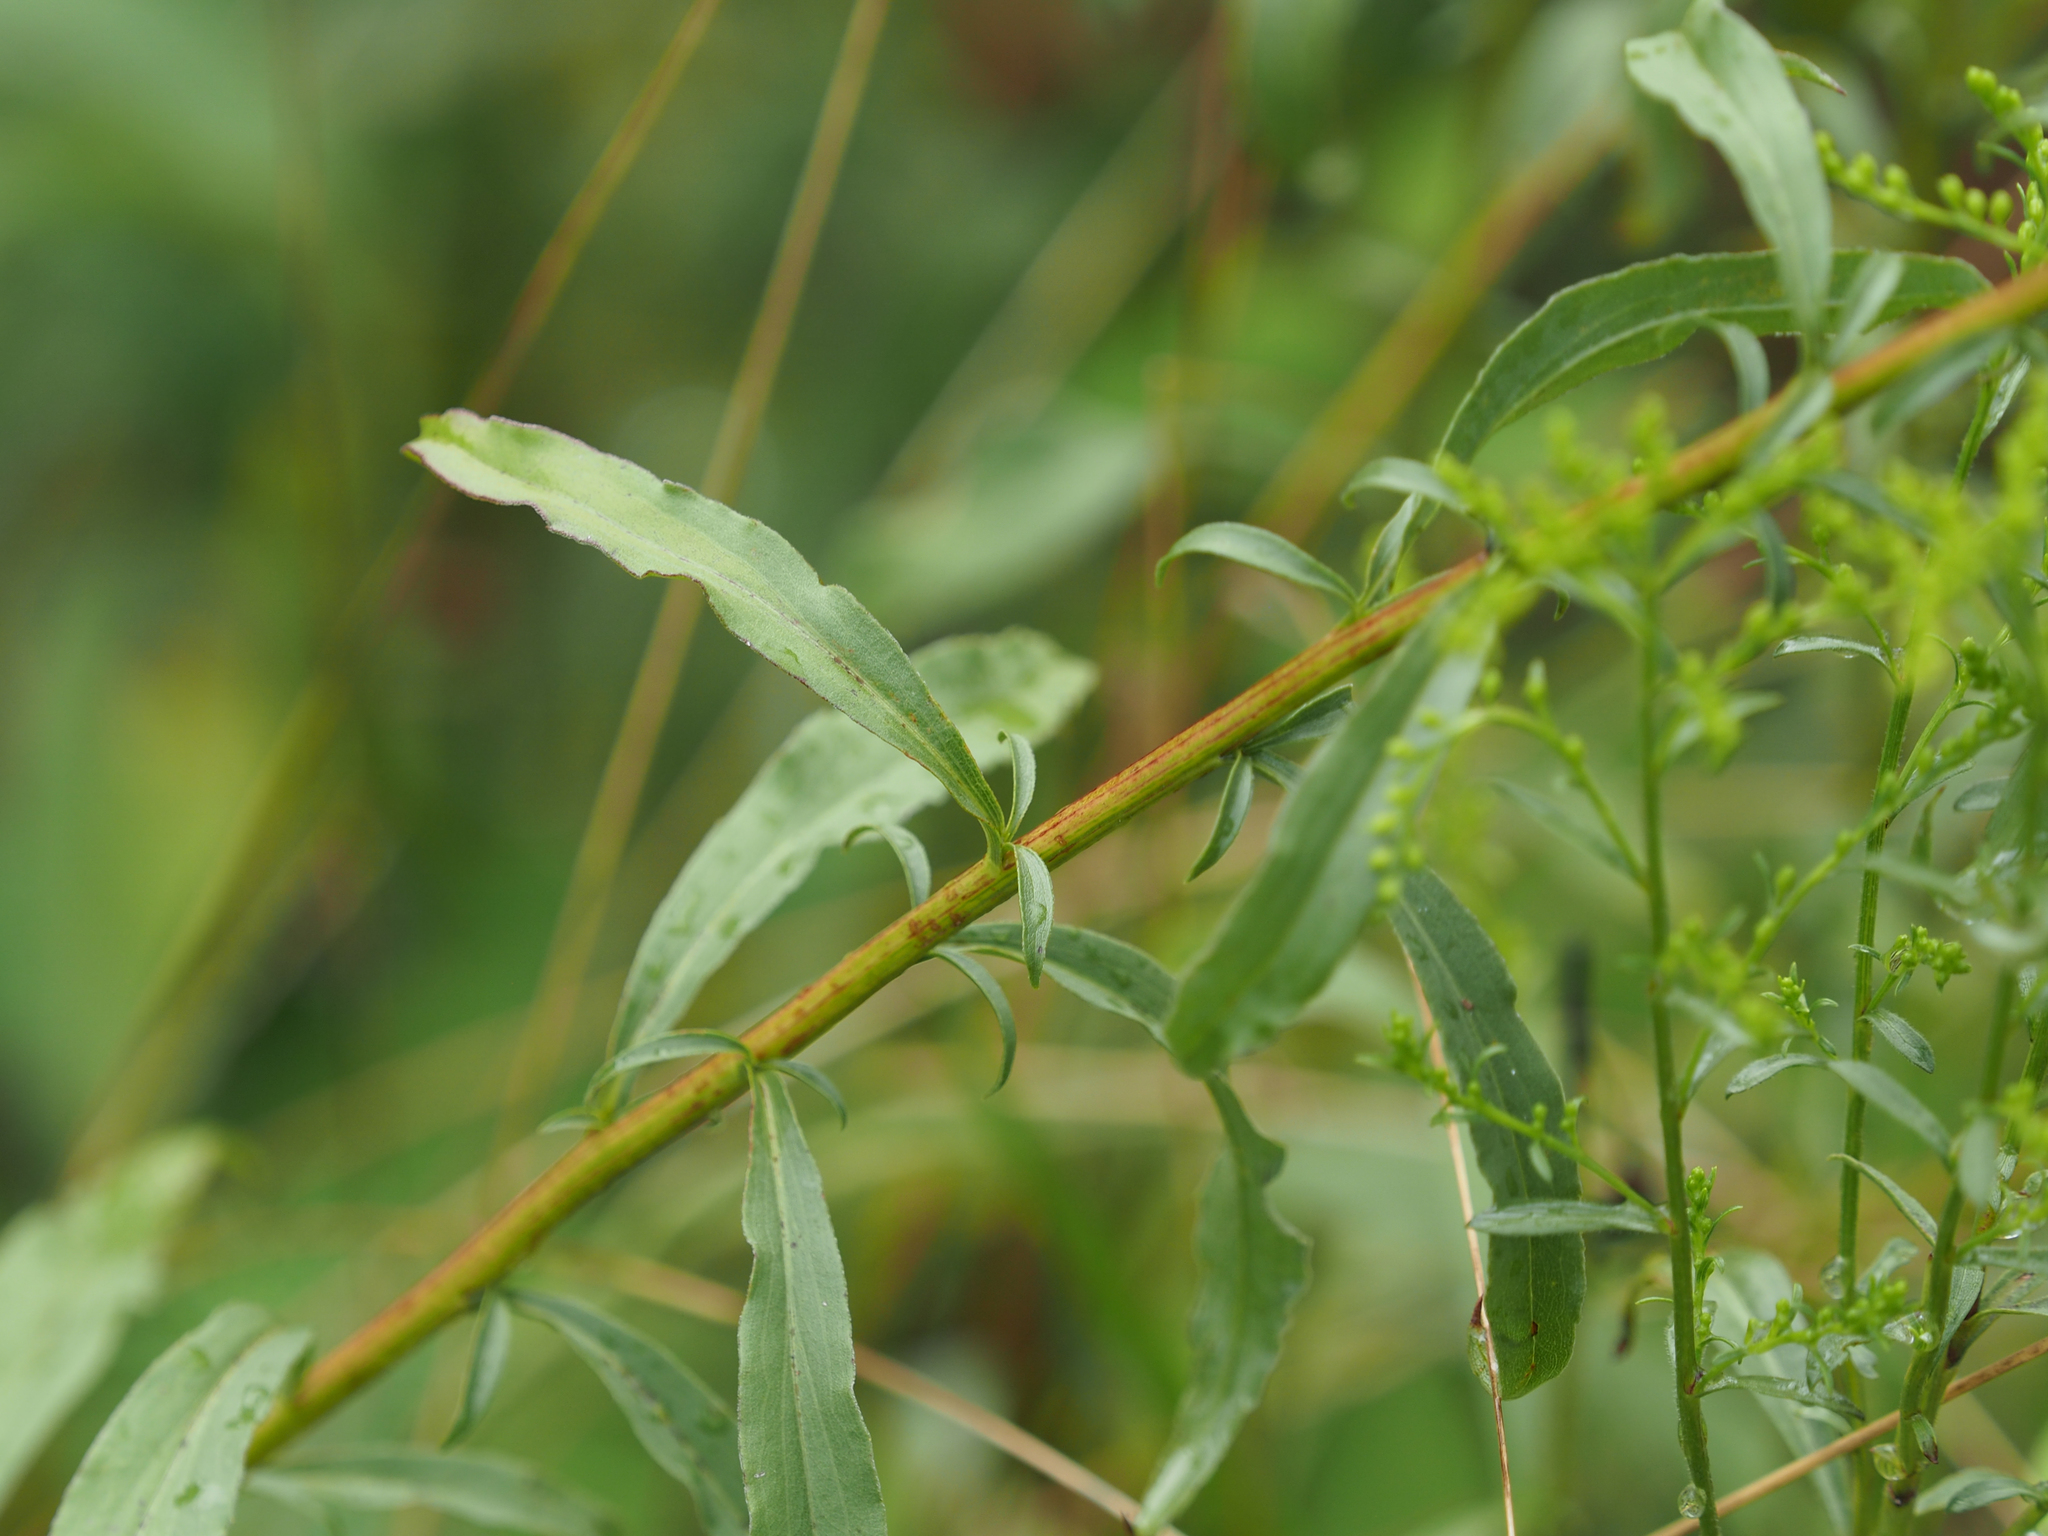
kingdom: Plantae
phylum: Tracheophyta
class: Magnoliopsida
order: Asterales
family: Asteraceae
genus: Solidago
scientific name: Solidago juncea
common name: Early goldenrod
